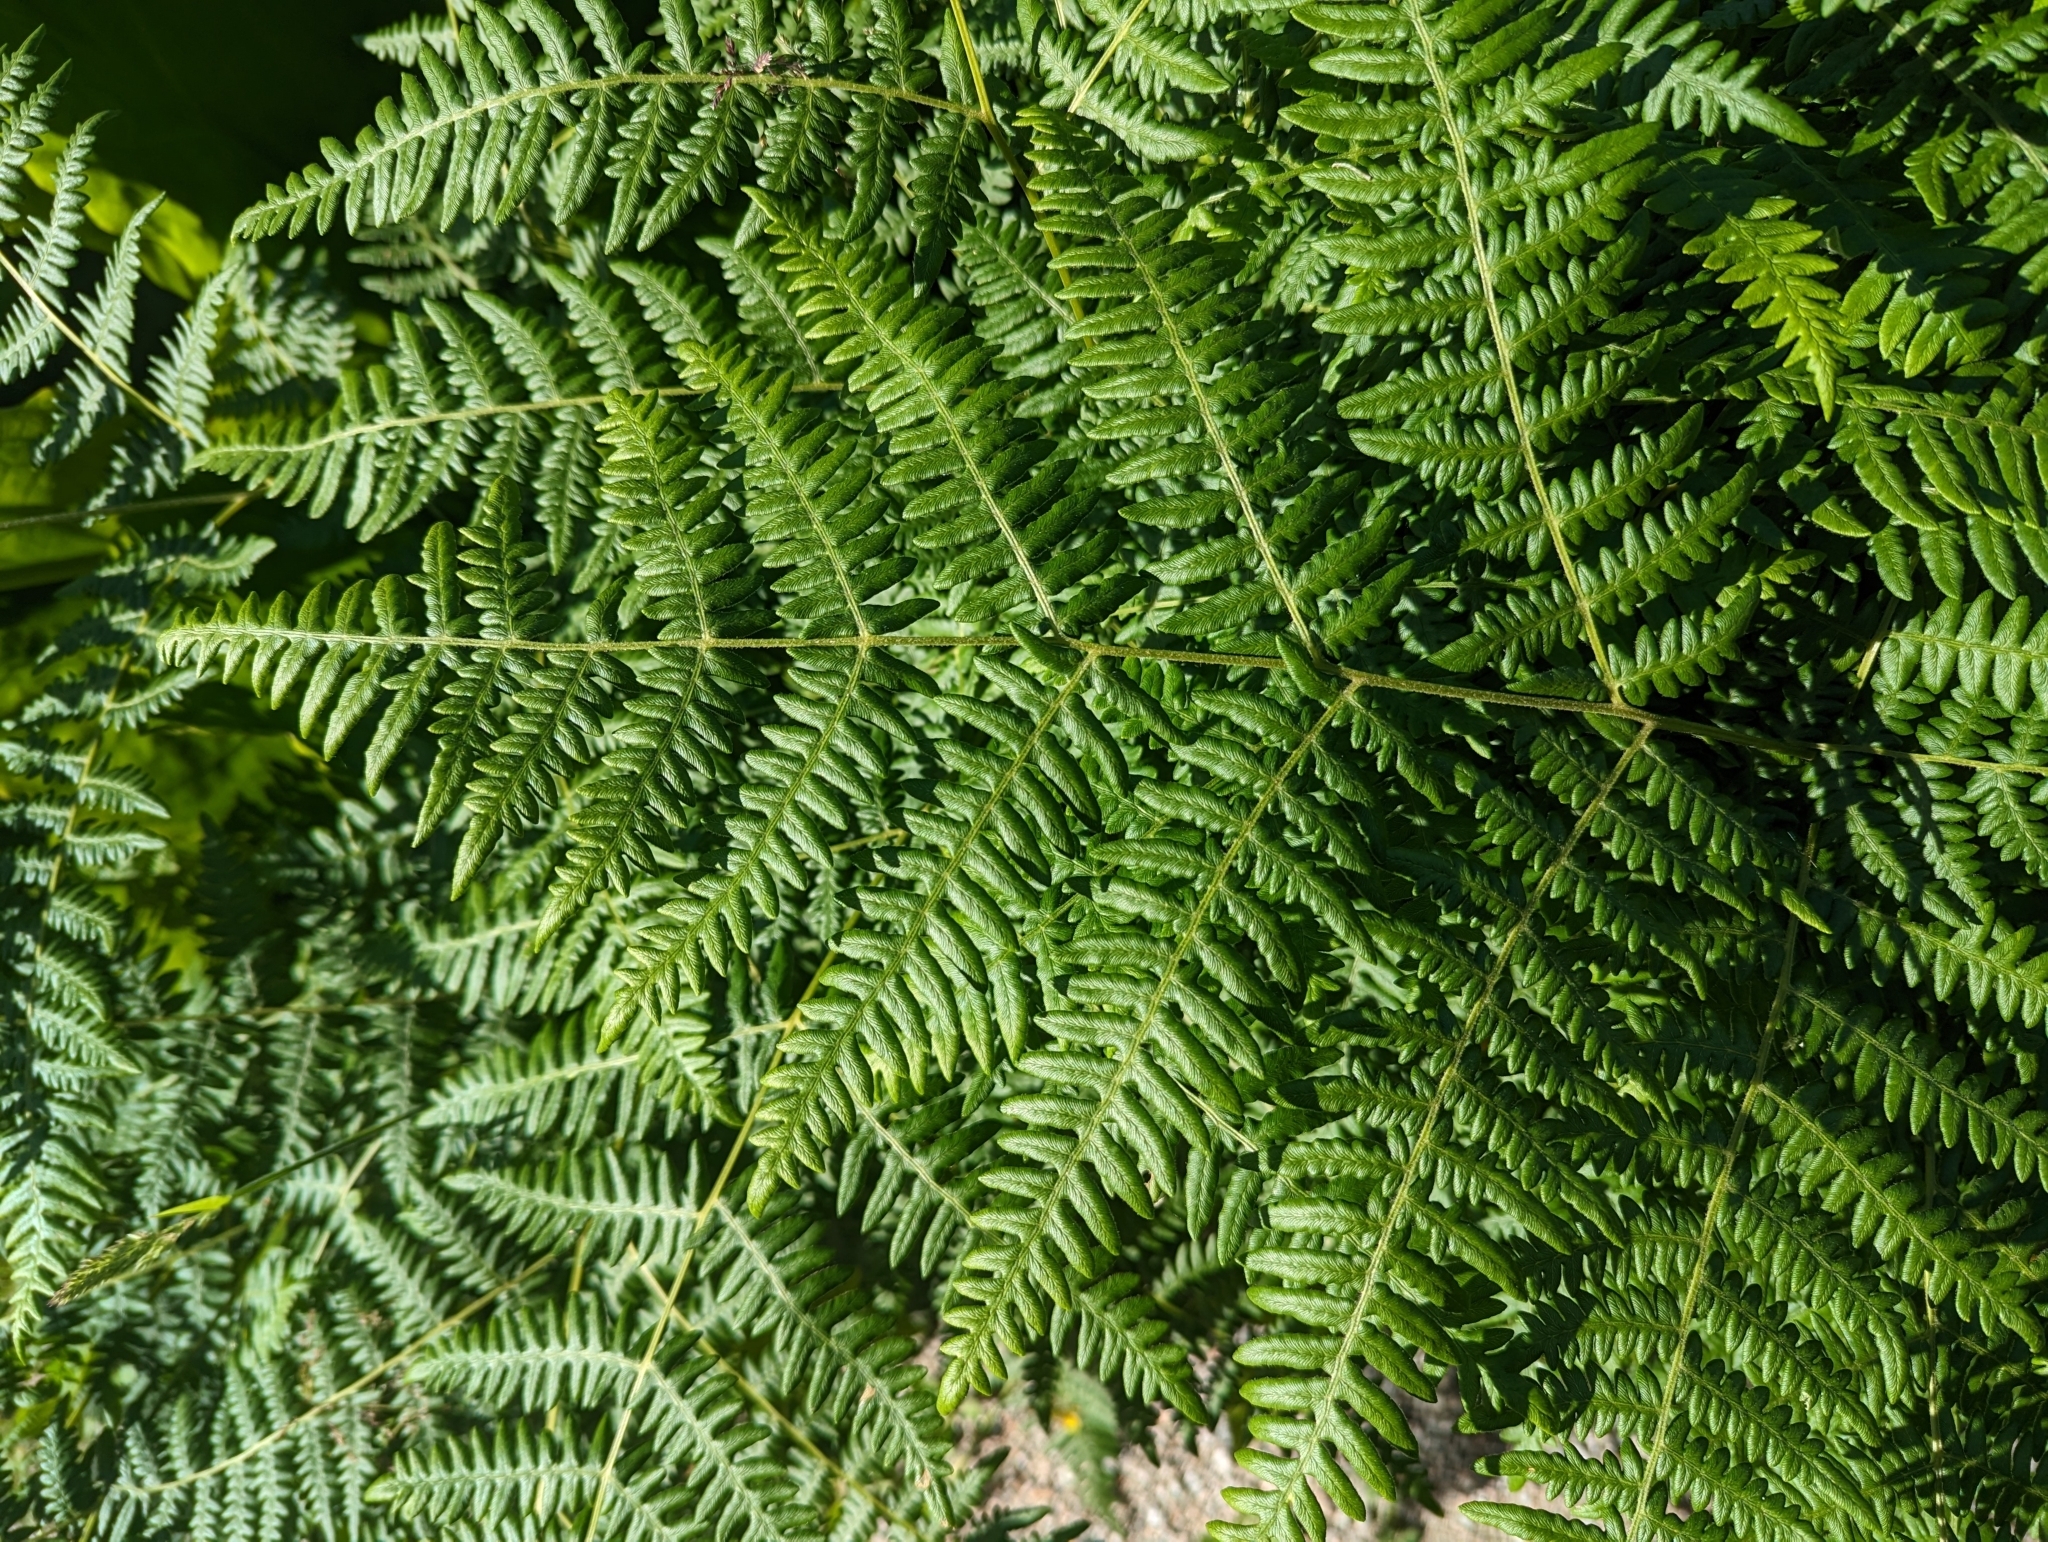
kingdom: Plantae
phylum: Tracheophyta
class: Polypodiopsida
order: Polypodiales
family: Dennstaedtiaceae
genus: Pteridium
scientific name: Pteridium aquilinum
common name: Bracken
